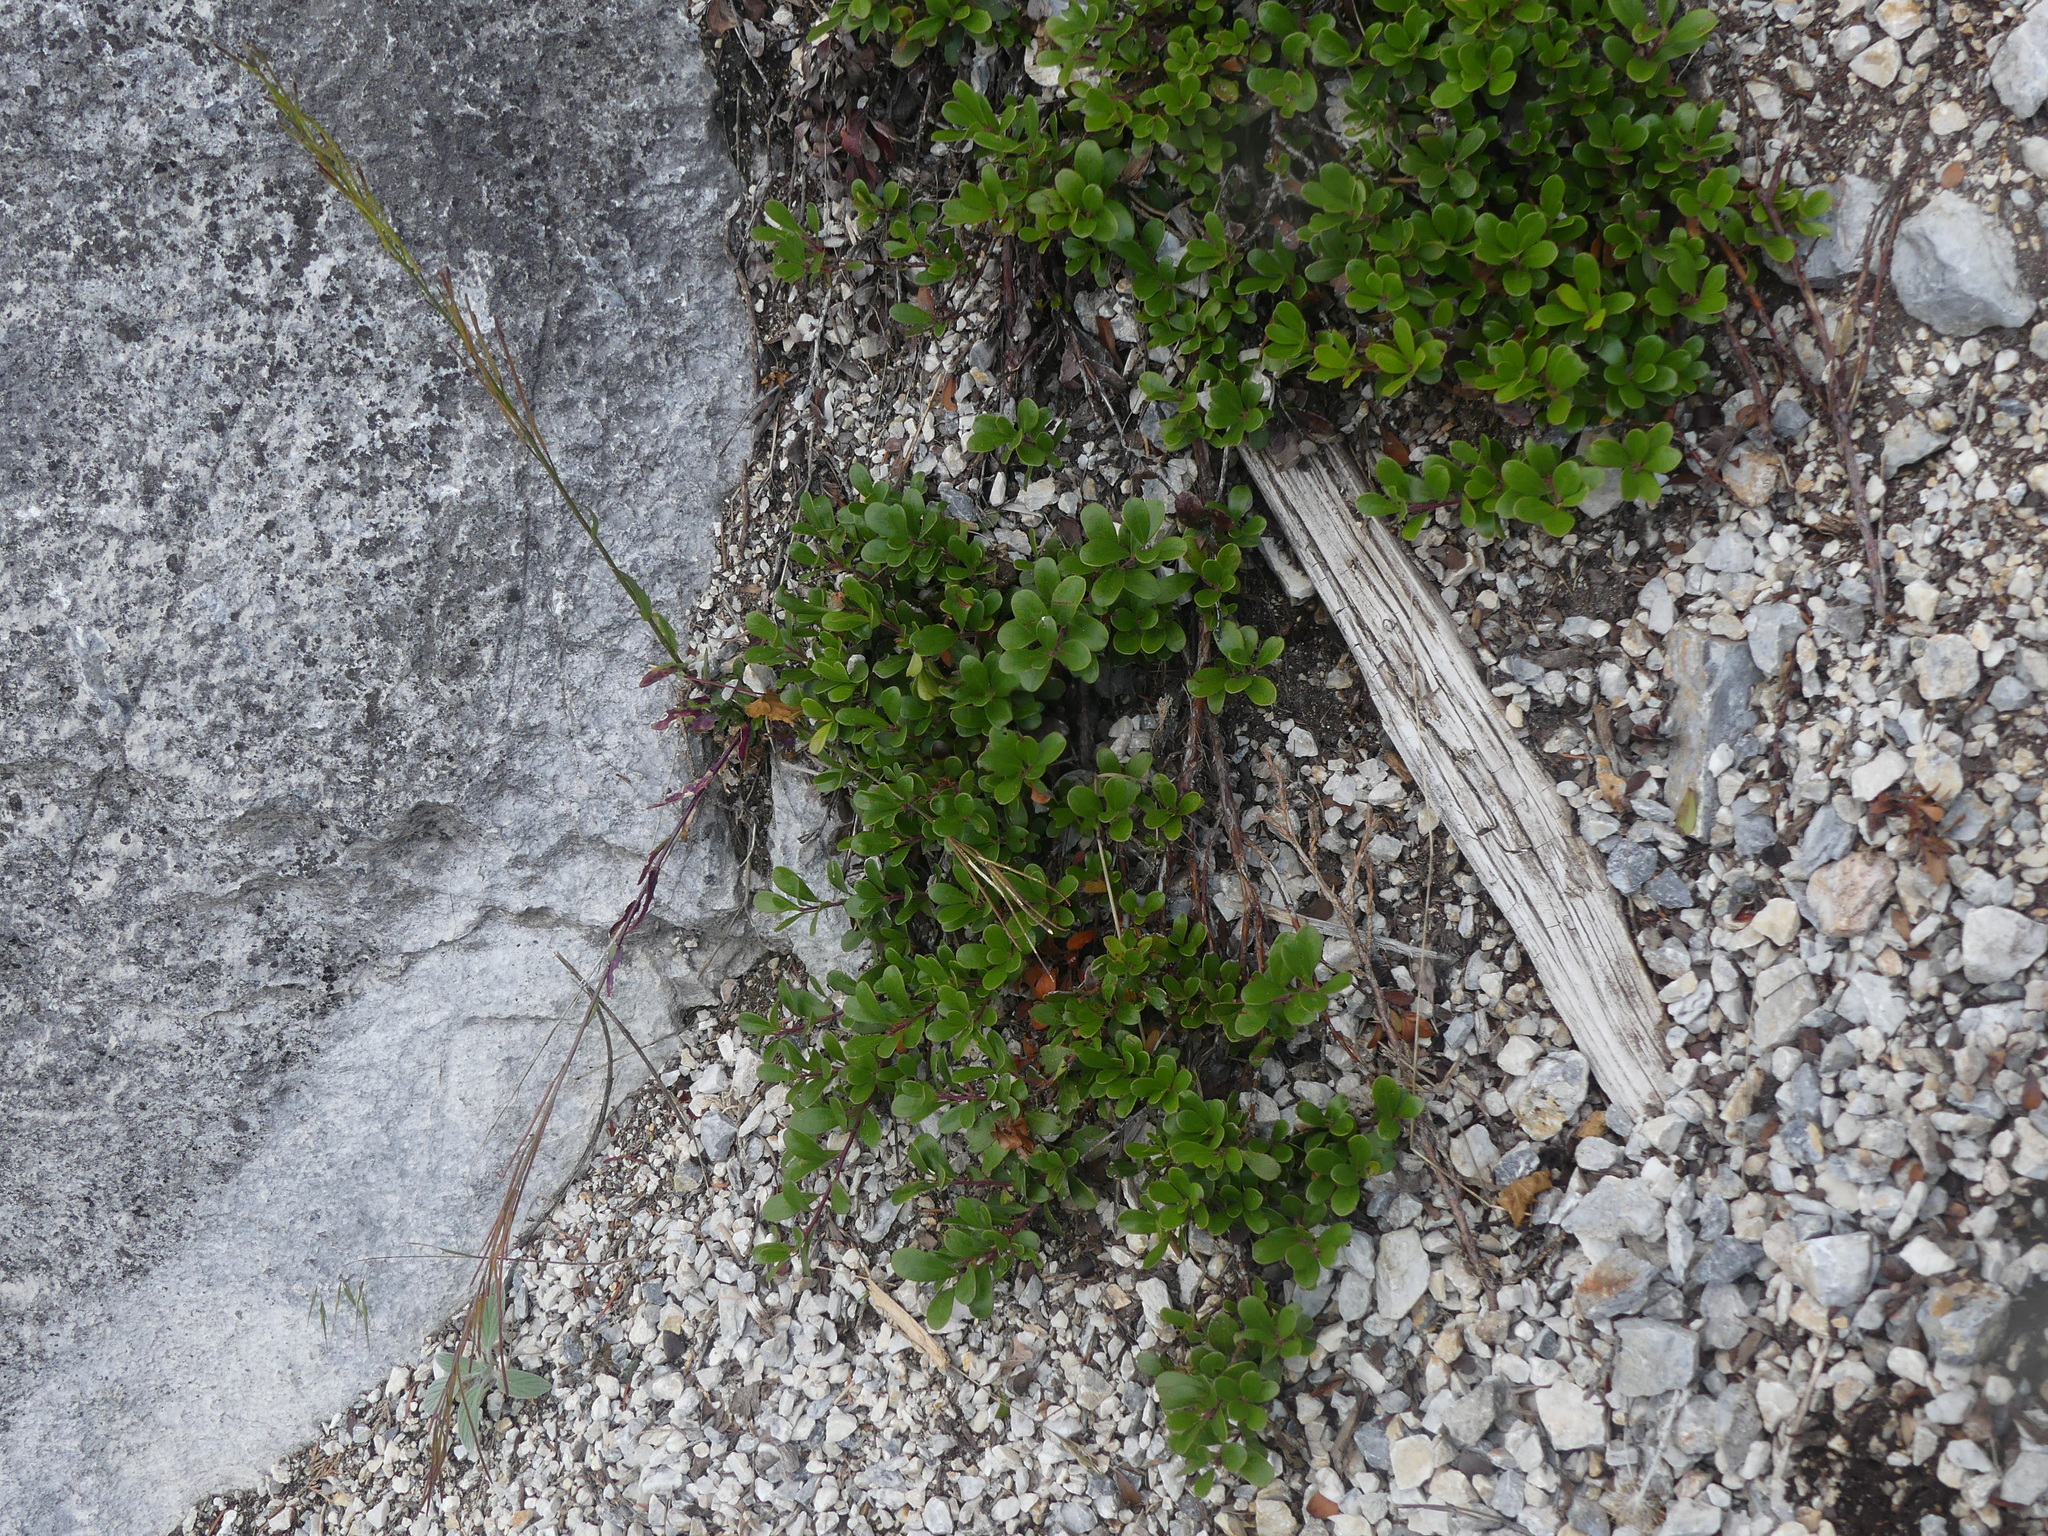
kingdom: Plantae
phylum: Tracheophyta
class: Magnoliopsida
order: Ericales
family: Ericaceae
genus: Arctostaphylos
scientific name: Arctostaphylos uva-ursi
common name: Bearberry
